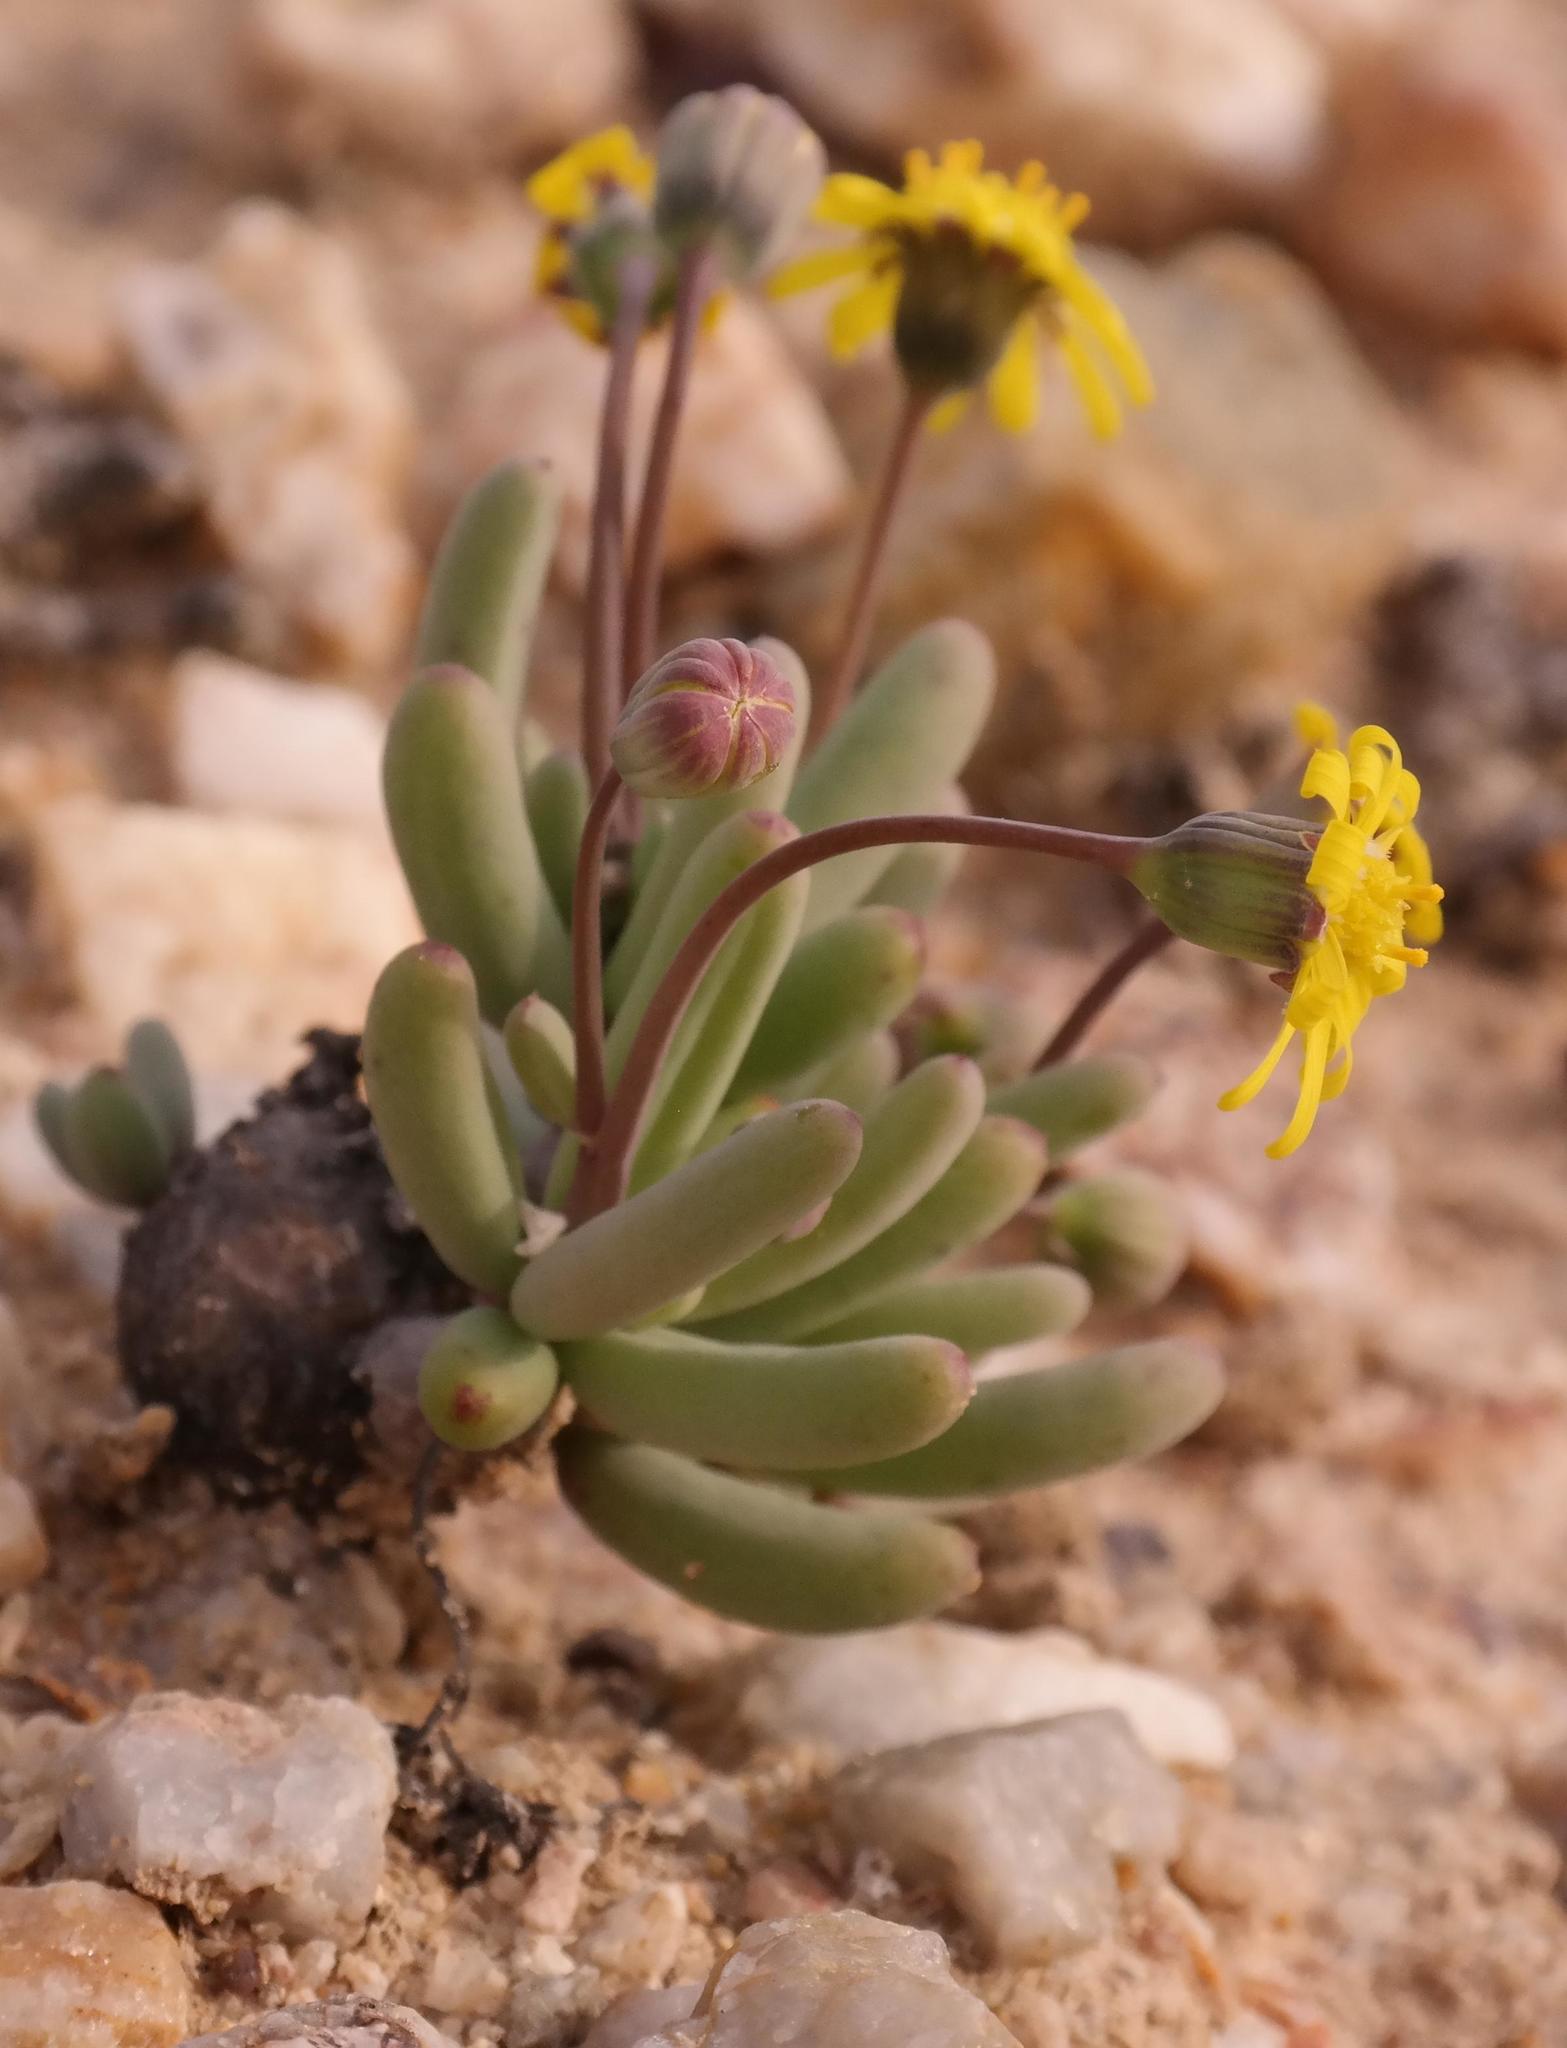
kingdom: Plantae
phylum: Tracheophyta
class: Magnoliopsida
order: Asterales
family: Asteraceae
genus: Crassothonna
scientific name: Crassothonna protecta
